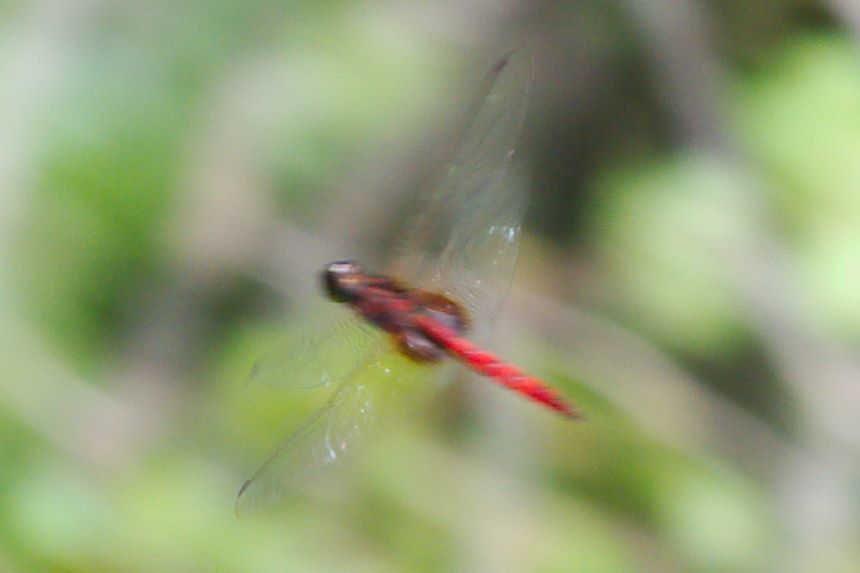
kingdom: Animalia
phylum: Arthropoda
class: Insecta
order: Odonata
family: Libellulidae
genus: Tauriphila
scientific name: Tauriphila australis
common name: Garnet glider
